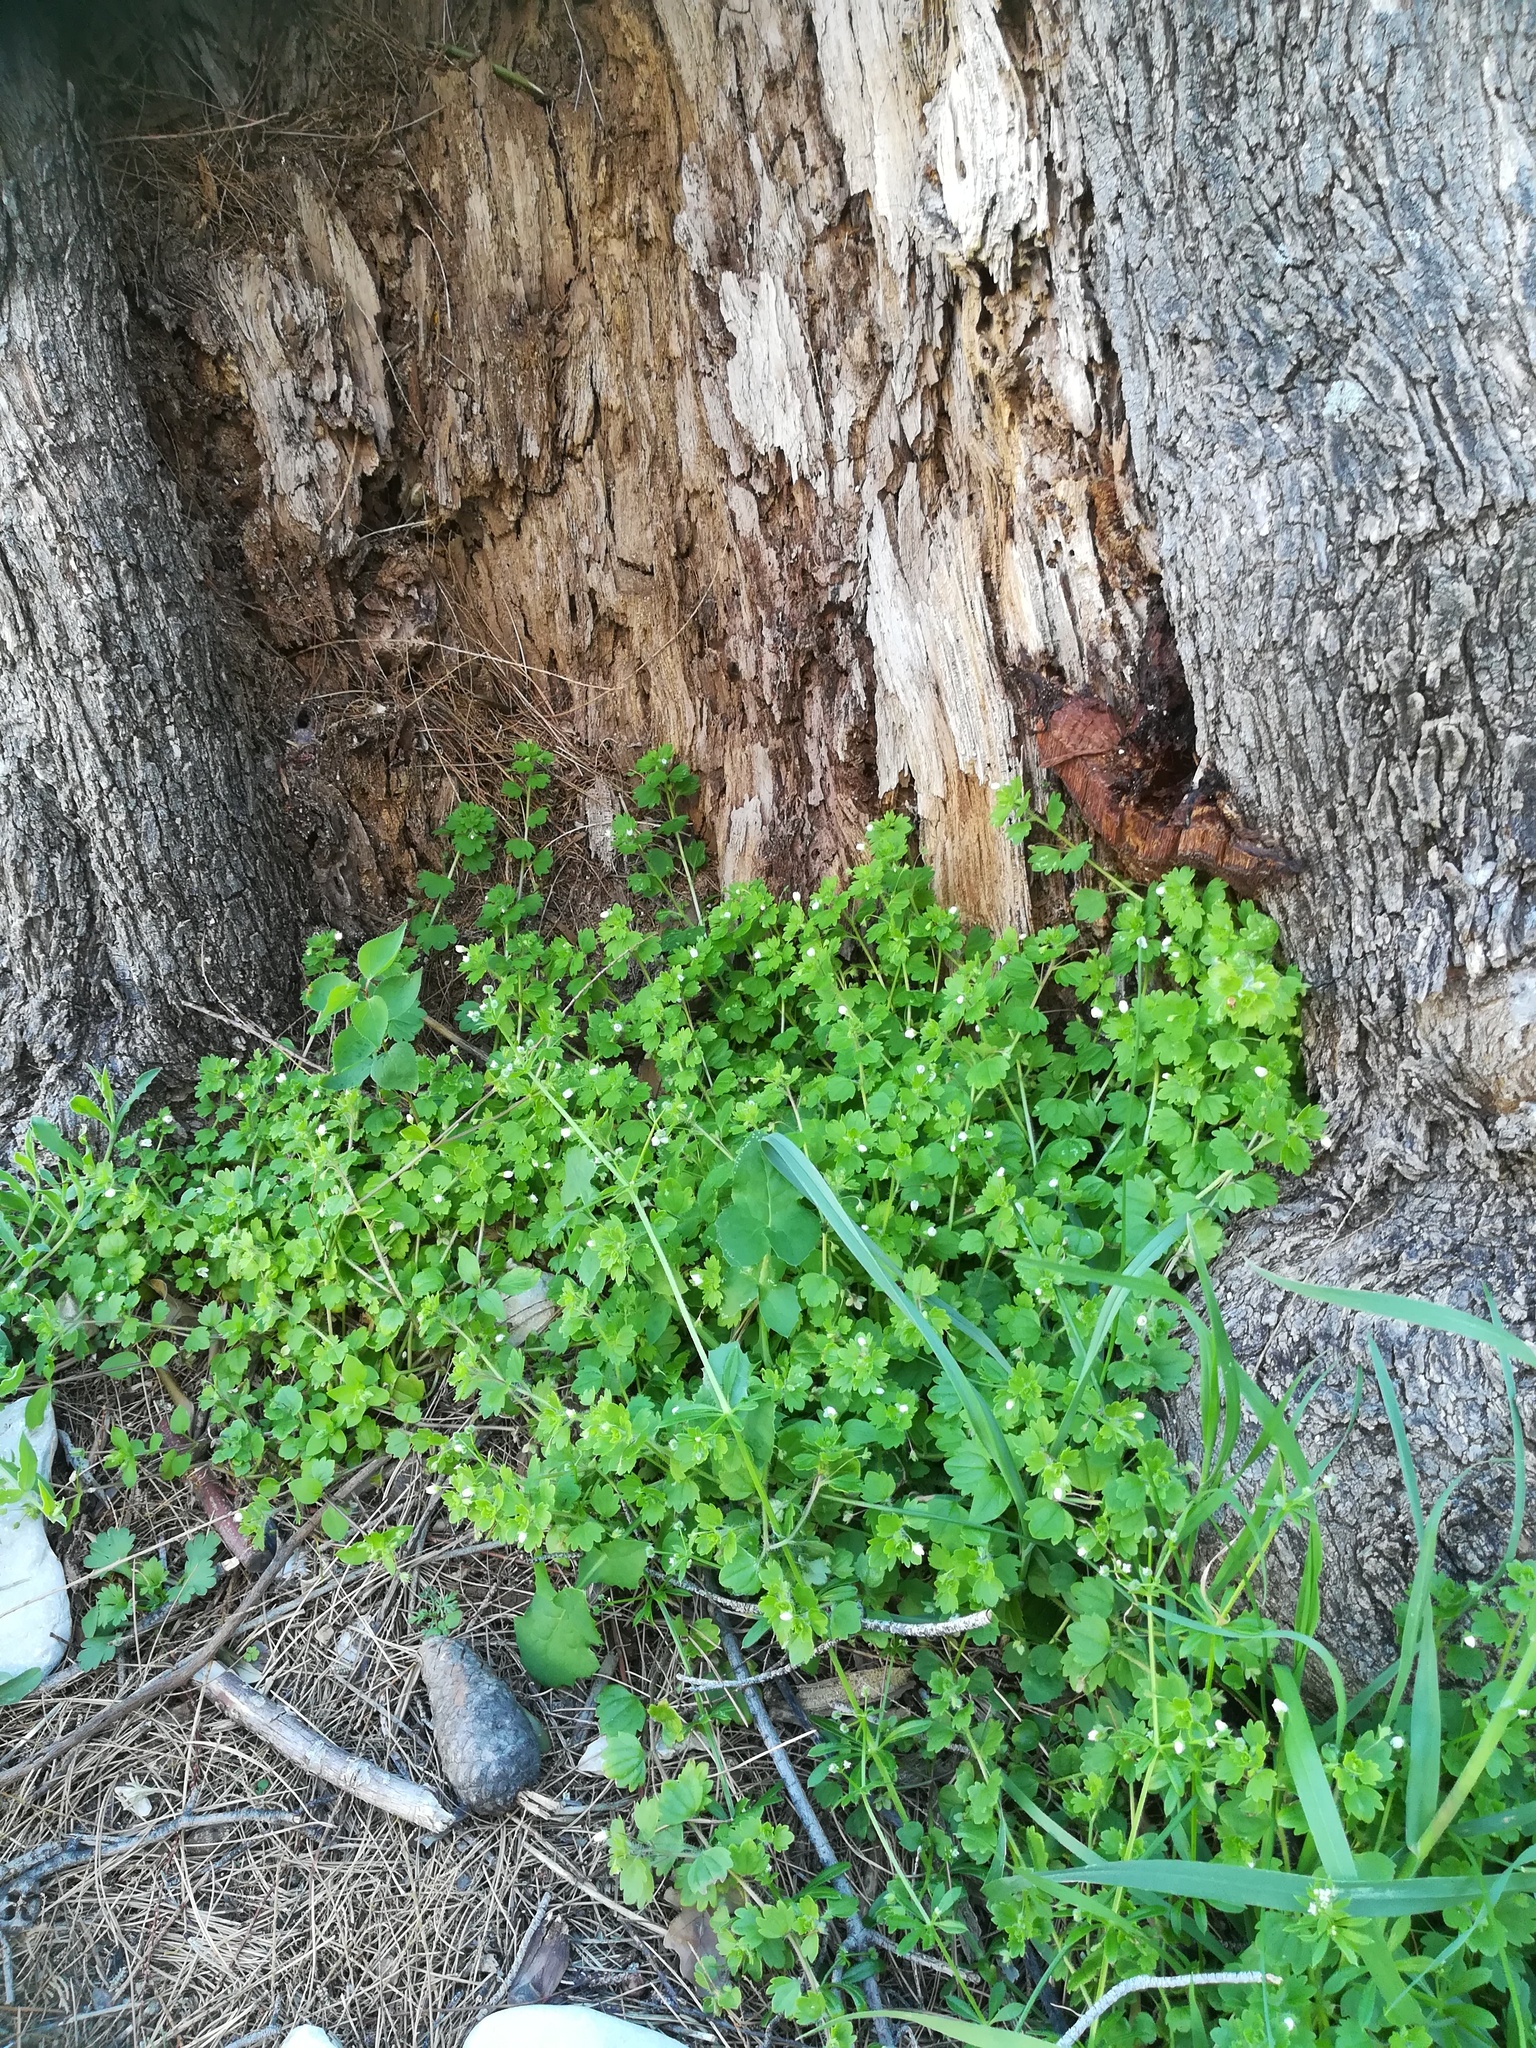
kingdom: Plantae
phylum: Tracheophyta
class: Magnoliopsida
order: Lamiales
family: Plantaginaceae
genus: Veronica
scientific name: Veronica cymbalaria
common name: Pale speedwell
